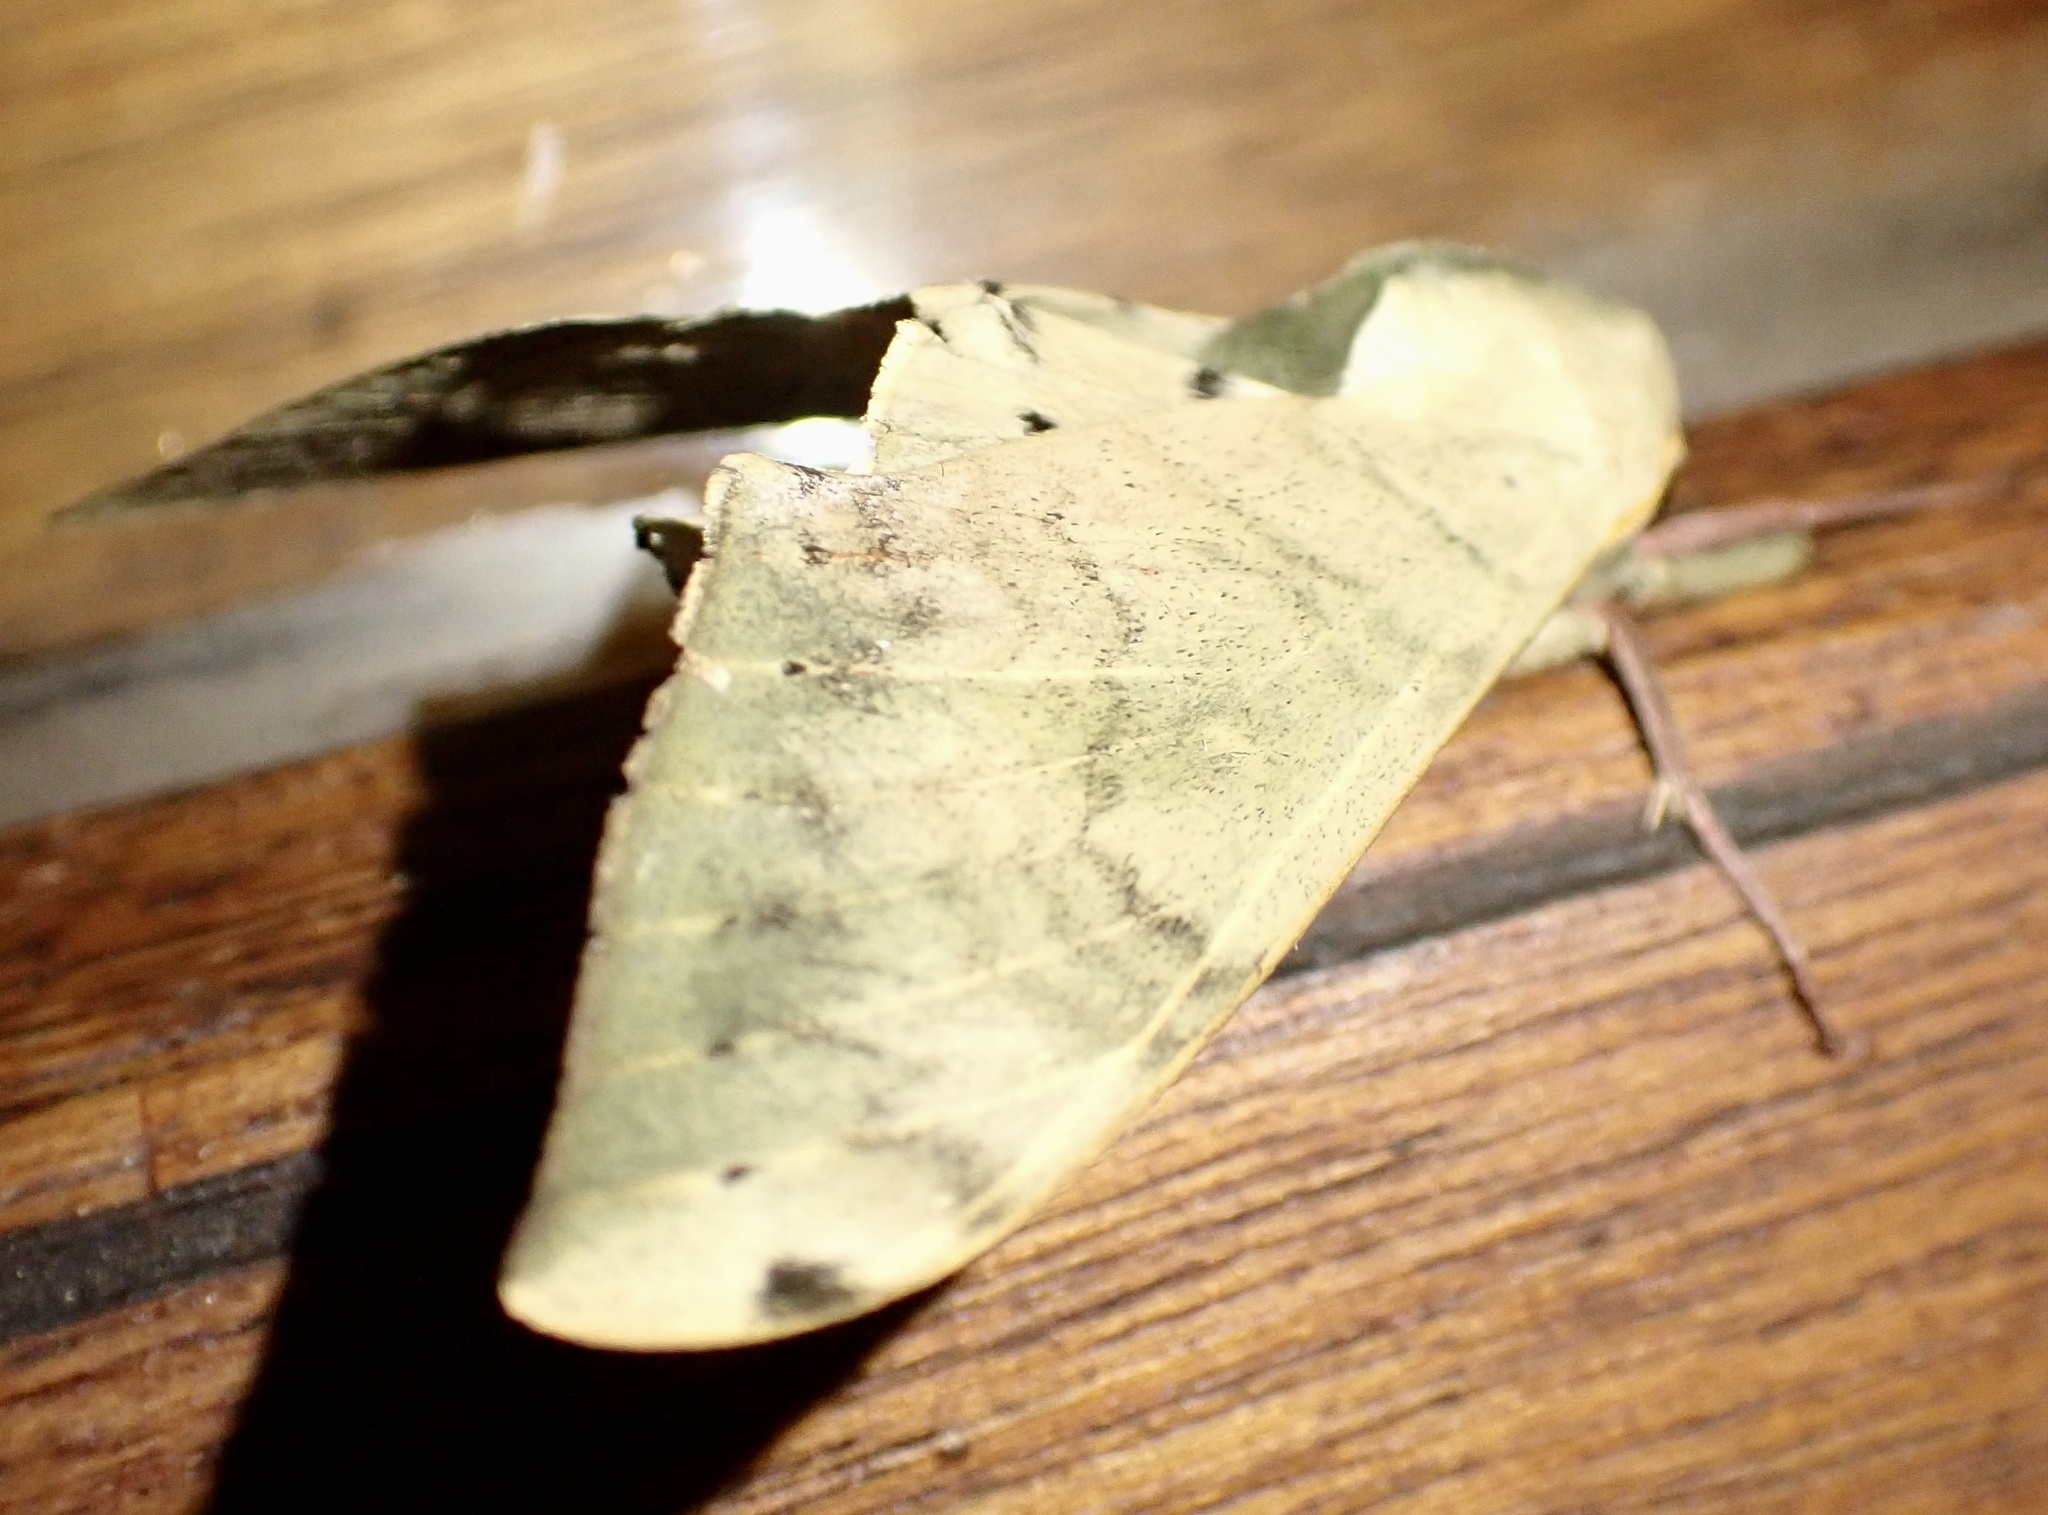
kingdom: Animalia
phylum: Arthropoda
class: Insecta
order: Lepidoptera
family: Sphingidae
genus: Pseudoclanis
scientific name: Pseudoclanis postica
